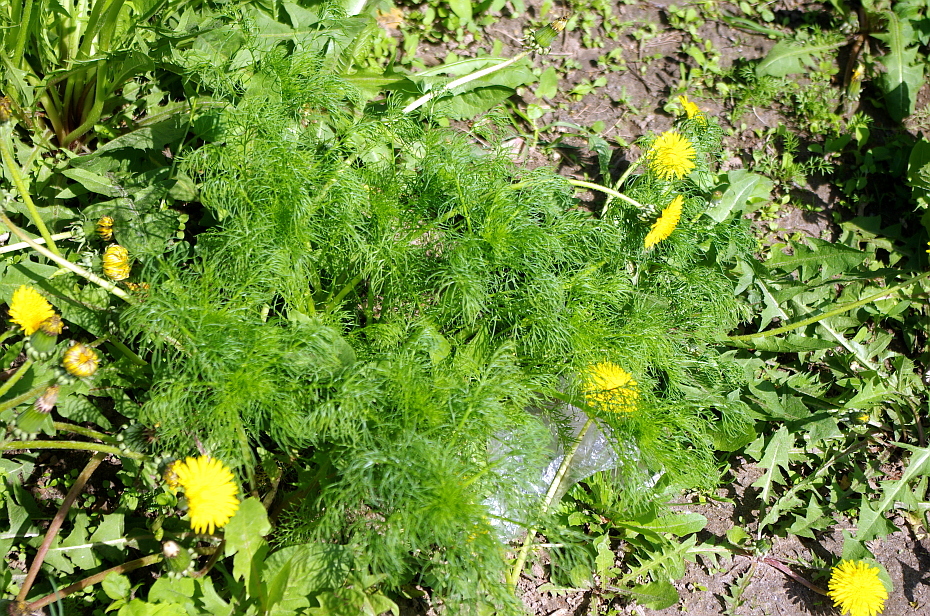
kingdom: Plantae
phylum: Tracheophyta
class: Magnoliopsida
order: Asterales
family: Asteraceae
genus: Tripleurospermum
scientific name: Tripleurospermum inodorum
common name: Scentless mayweed
